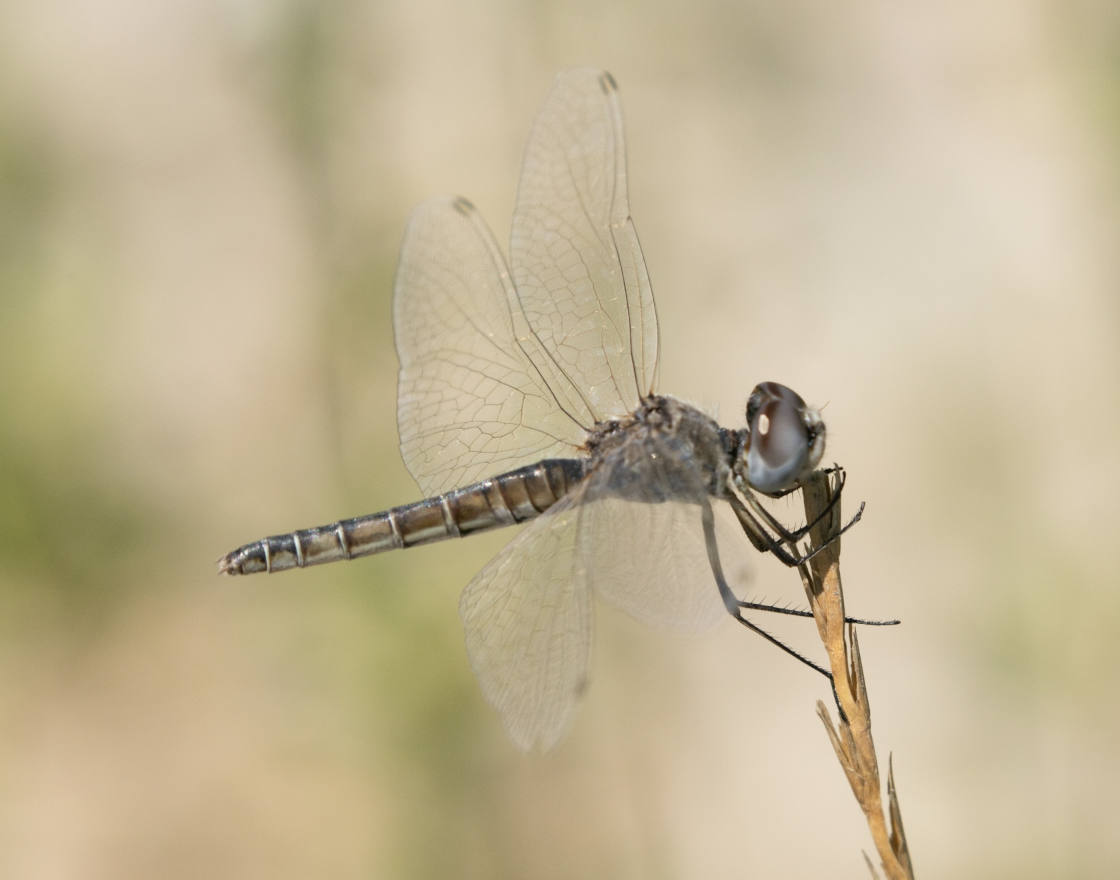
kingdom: Animalia
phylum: Arthropoda
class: Insecta
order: Odonata
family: Libellulidae
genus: Selysiothemis
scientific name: Selysiothemis nigra
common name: Black pennant
